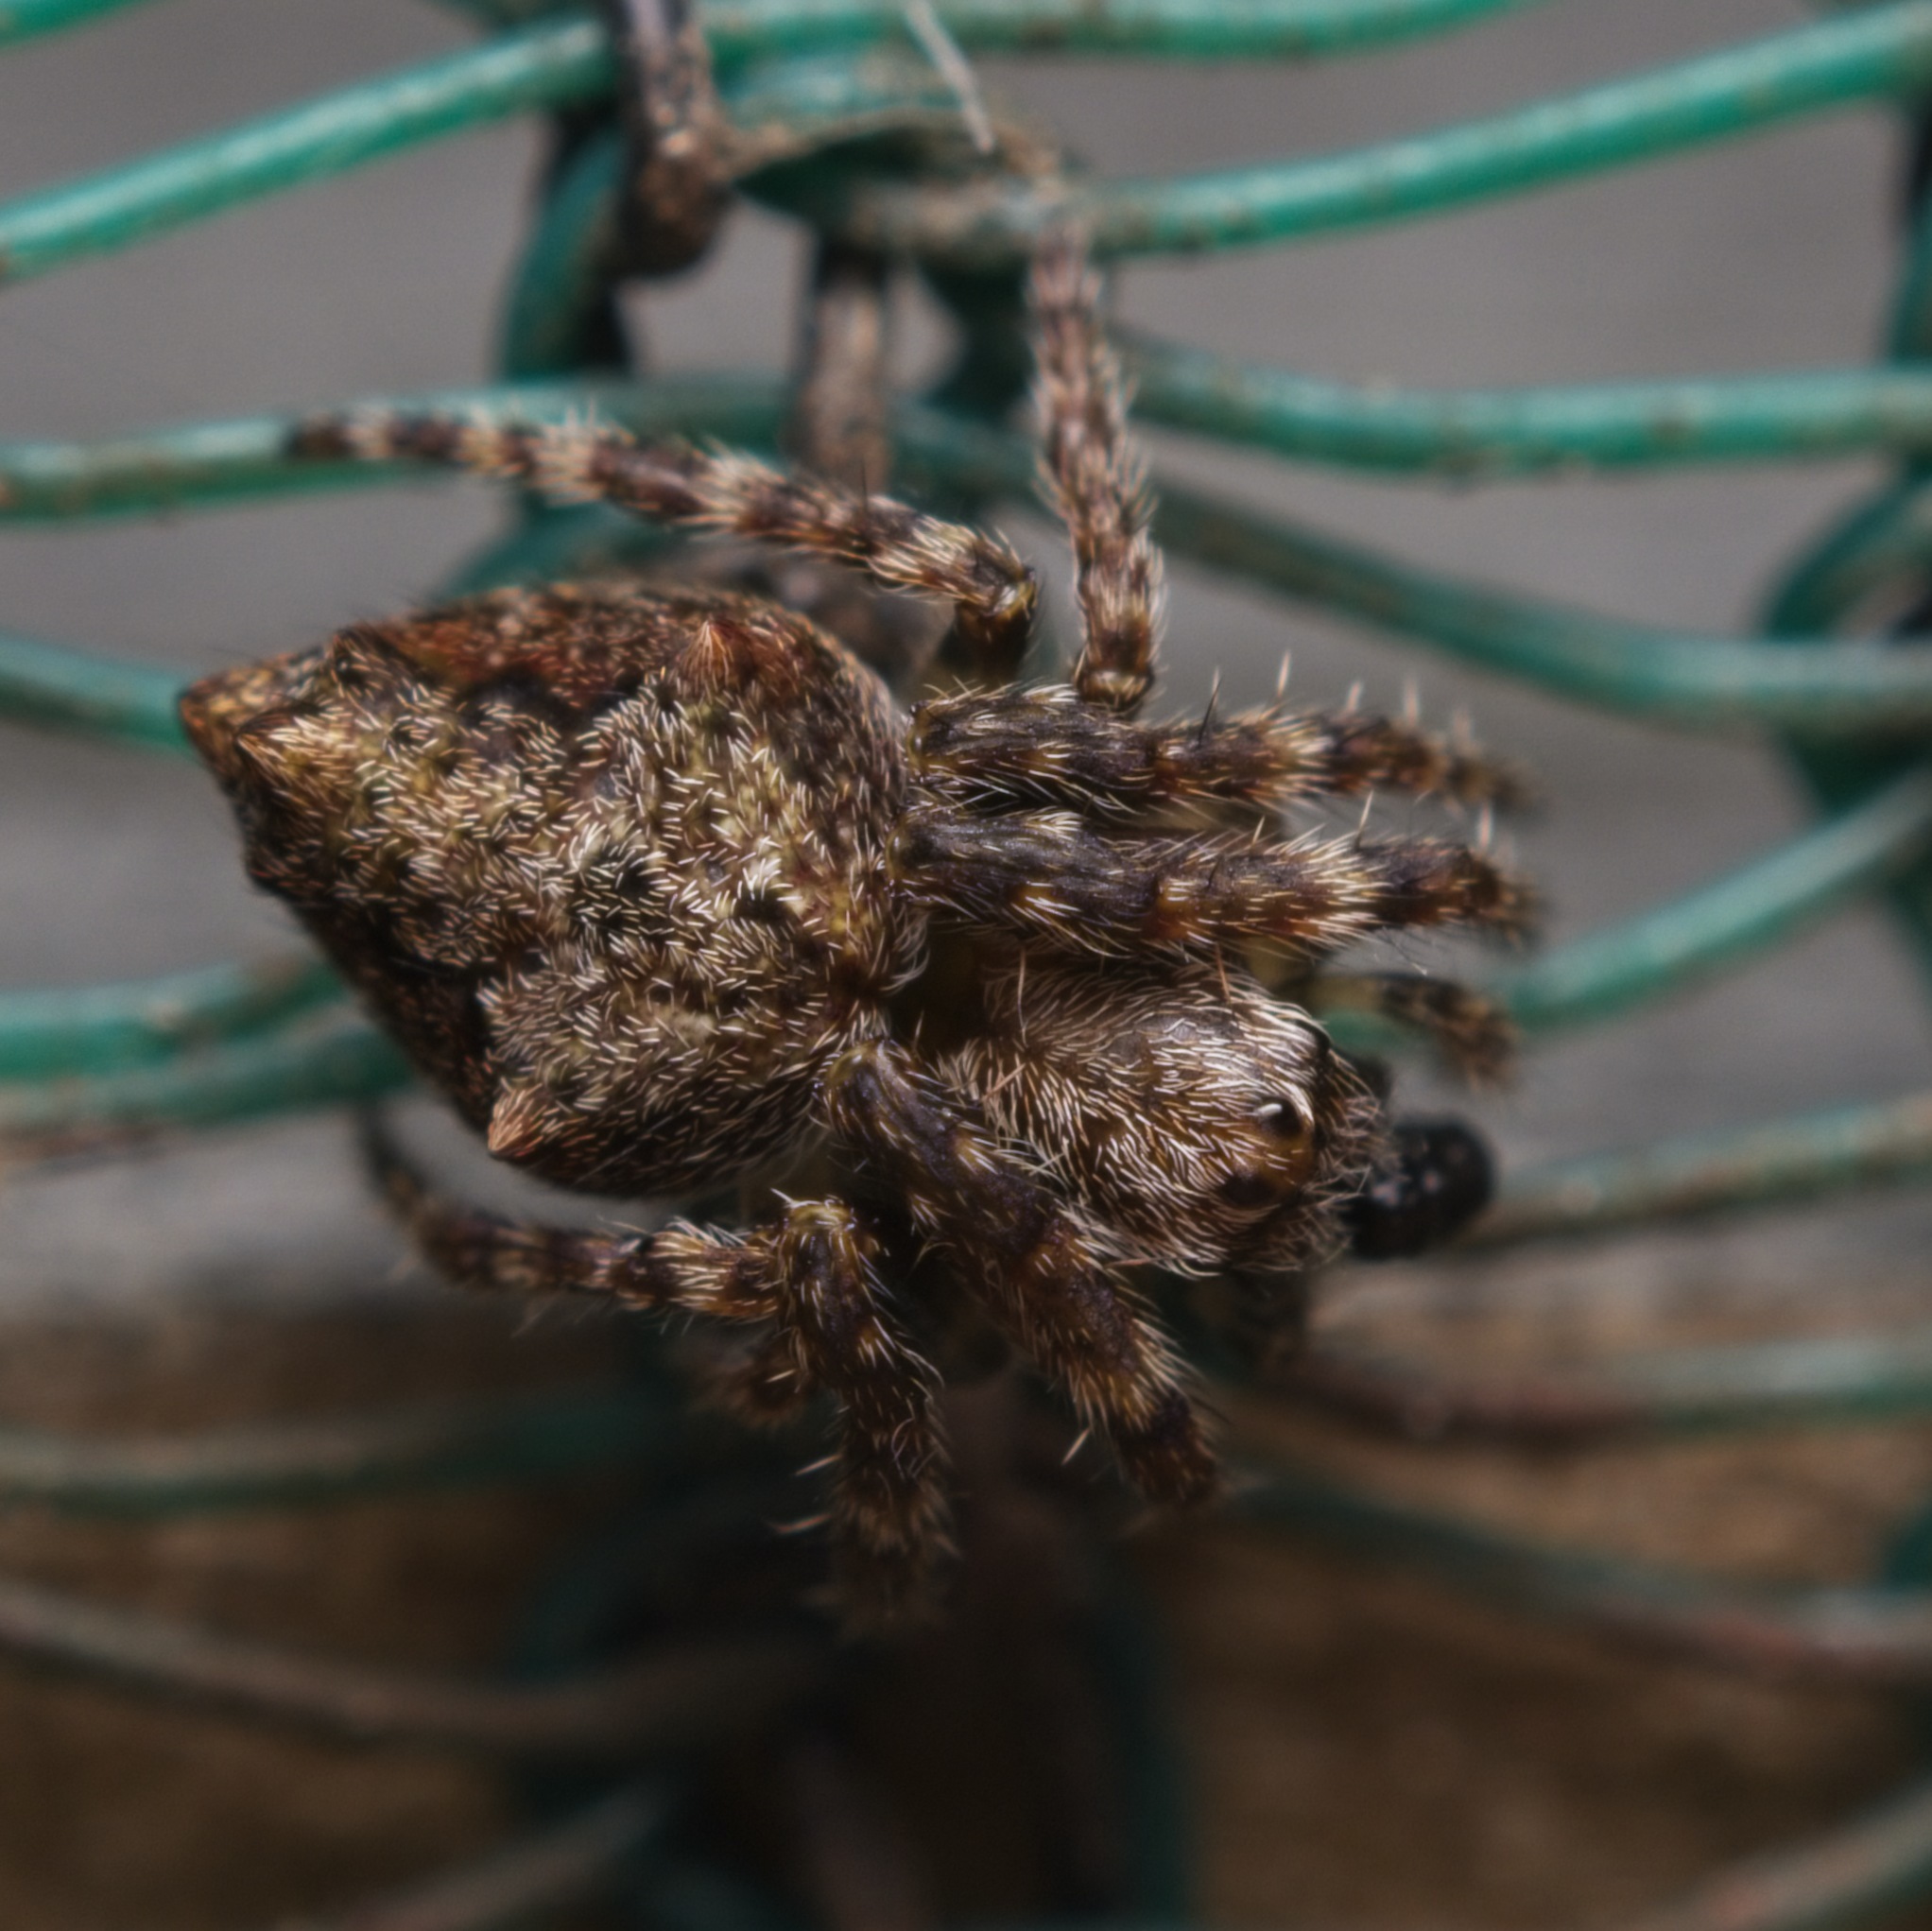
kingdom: Animalia
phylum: Arthropoda
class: Arachnida
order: Araneae
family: Araneidae
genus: Eriophora
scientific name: Eriophora pustulosa
